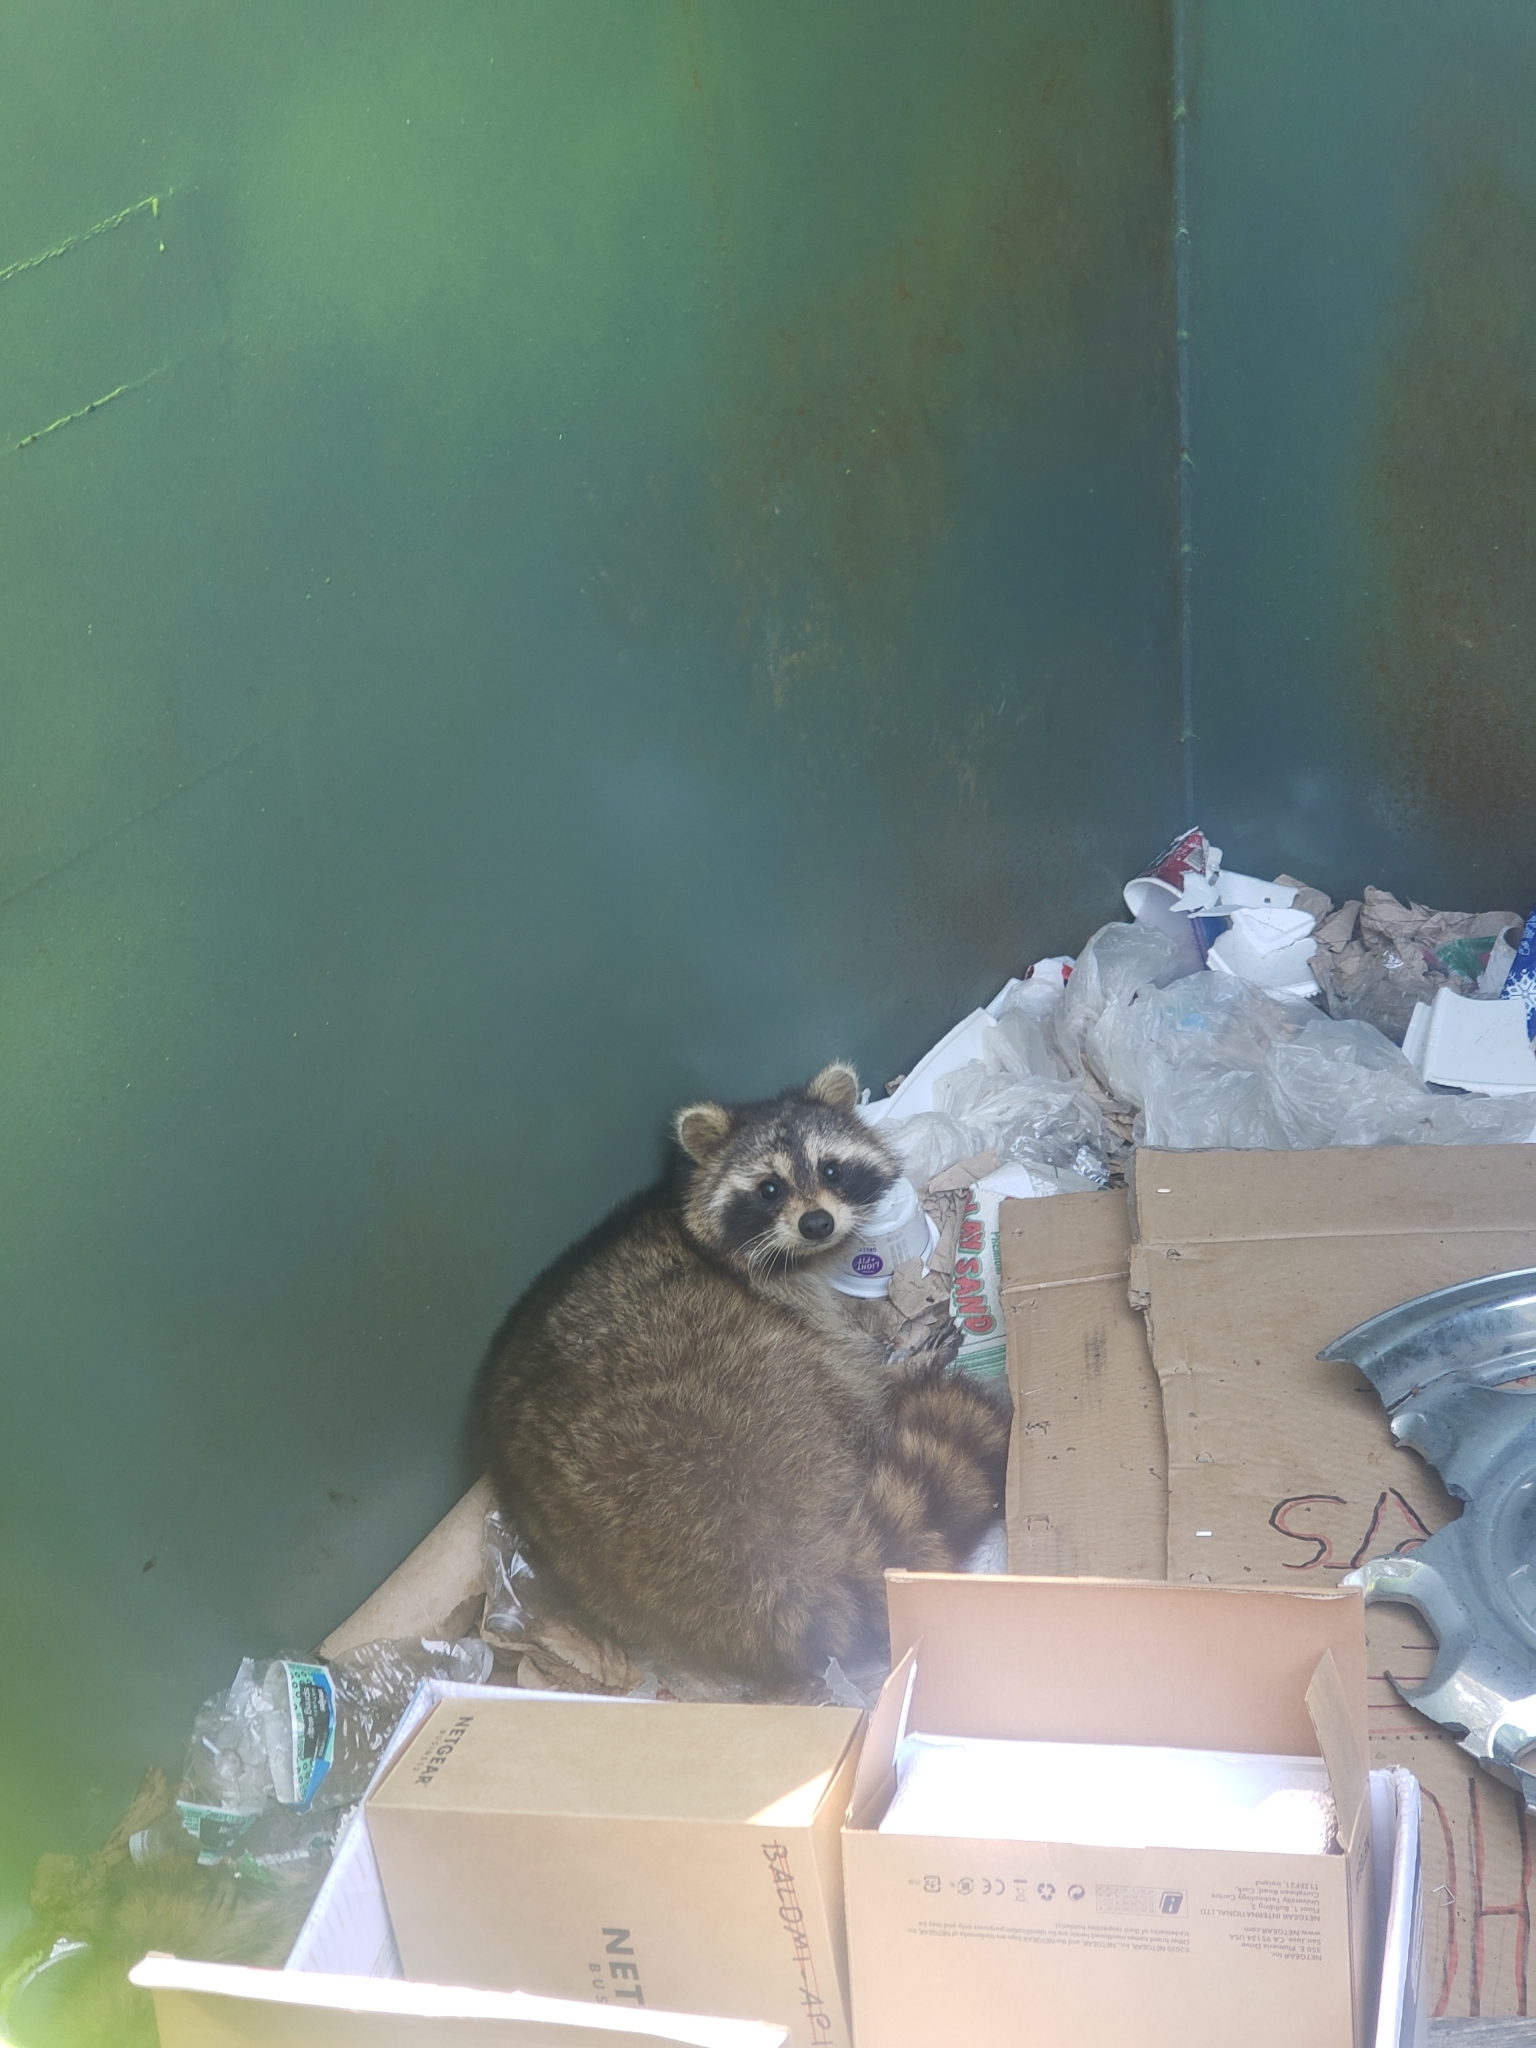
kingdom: Animalia
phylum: Chordata
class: Mammalia
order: Carnivora
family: Procyonidae
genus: Procyon
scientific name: Procyon lotor
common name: Raccoon
